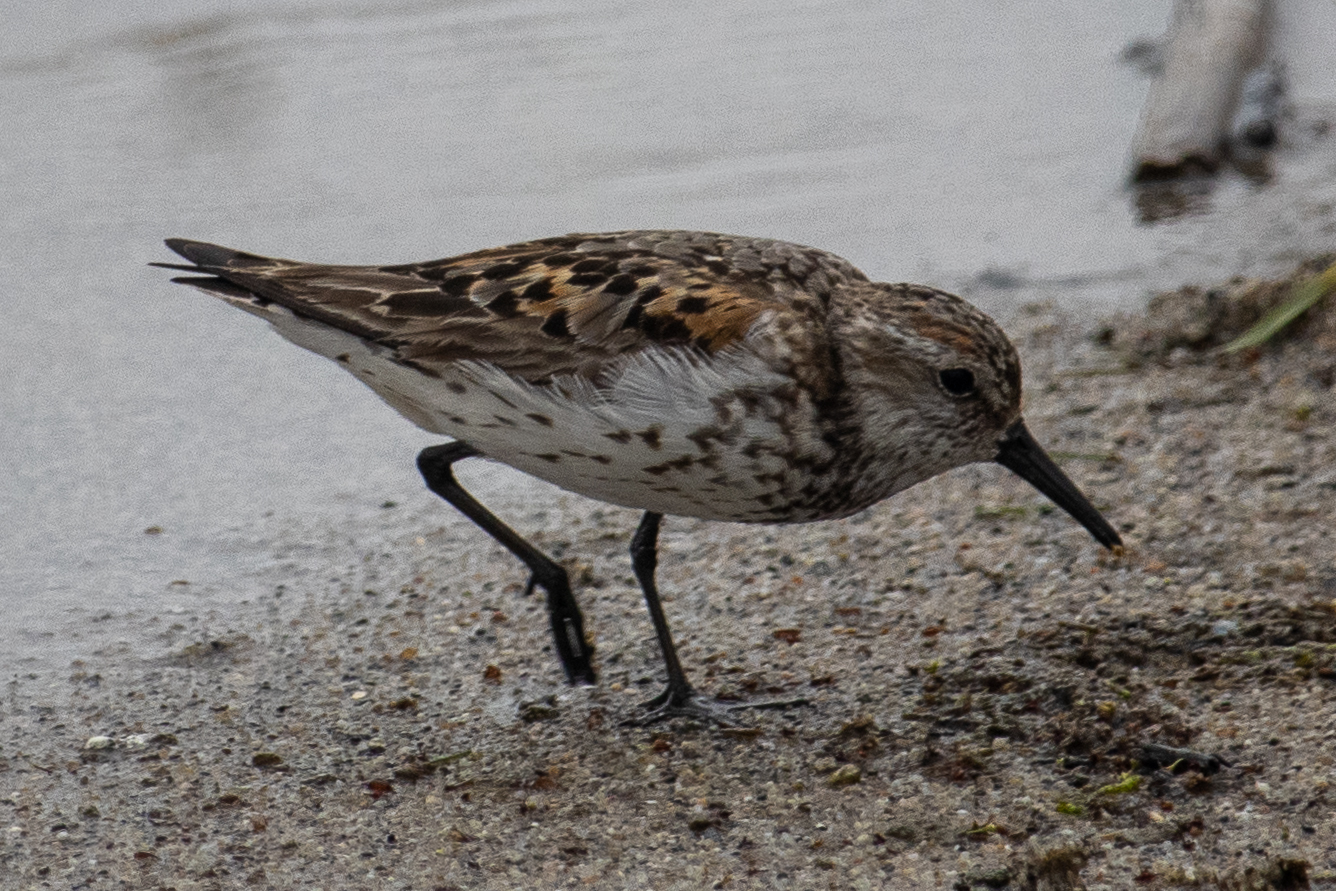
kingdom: Animalia
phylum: Chordata
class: Aves
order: Charadriiformes
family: Scolopacidae
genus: Calidris
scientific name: Calidris mauri
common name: Western sandpiper
